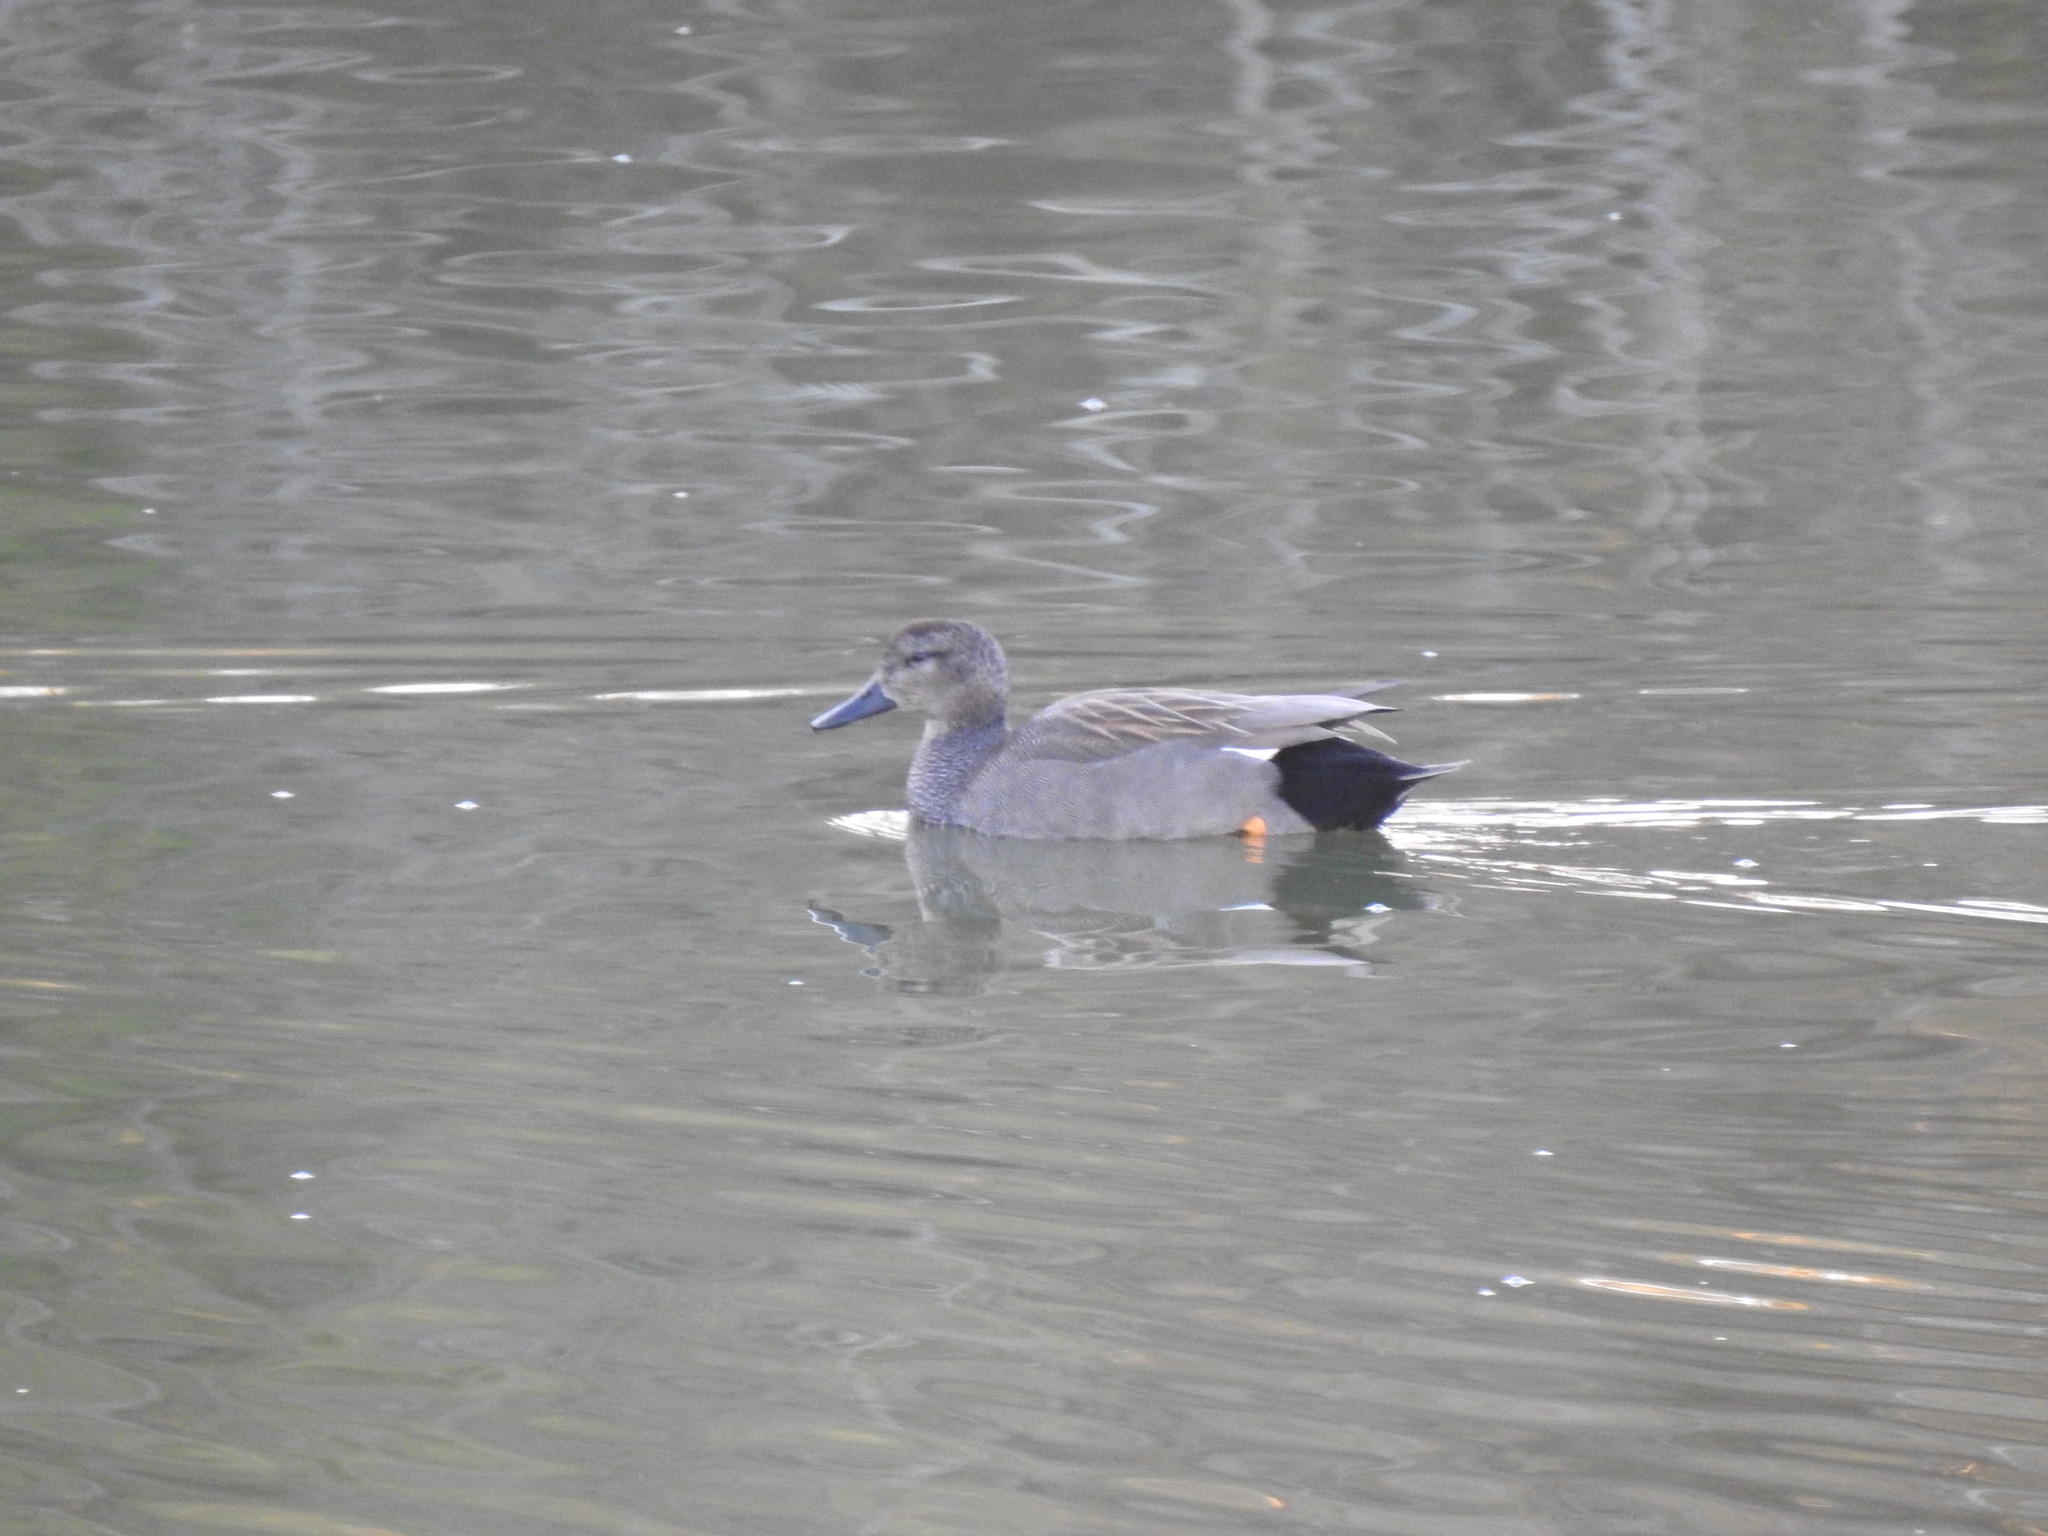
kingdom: Animalia
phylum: Chordata
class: Aves
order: Anseriformes
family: Anatidae
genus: Mareca
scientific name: Mareca strepera
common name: Gadwall
